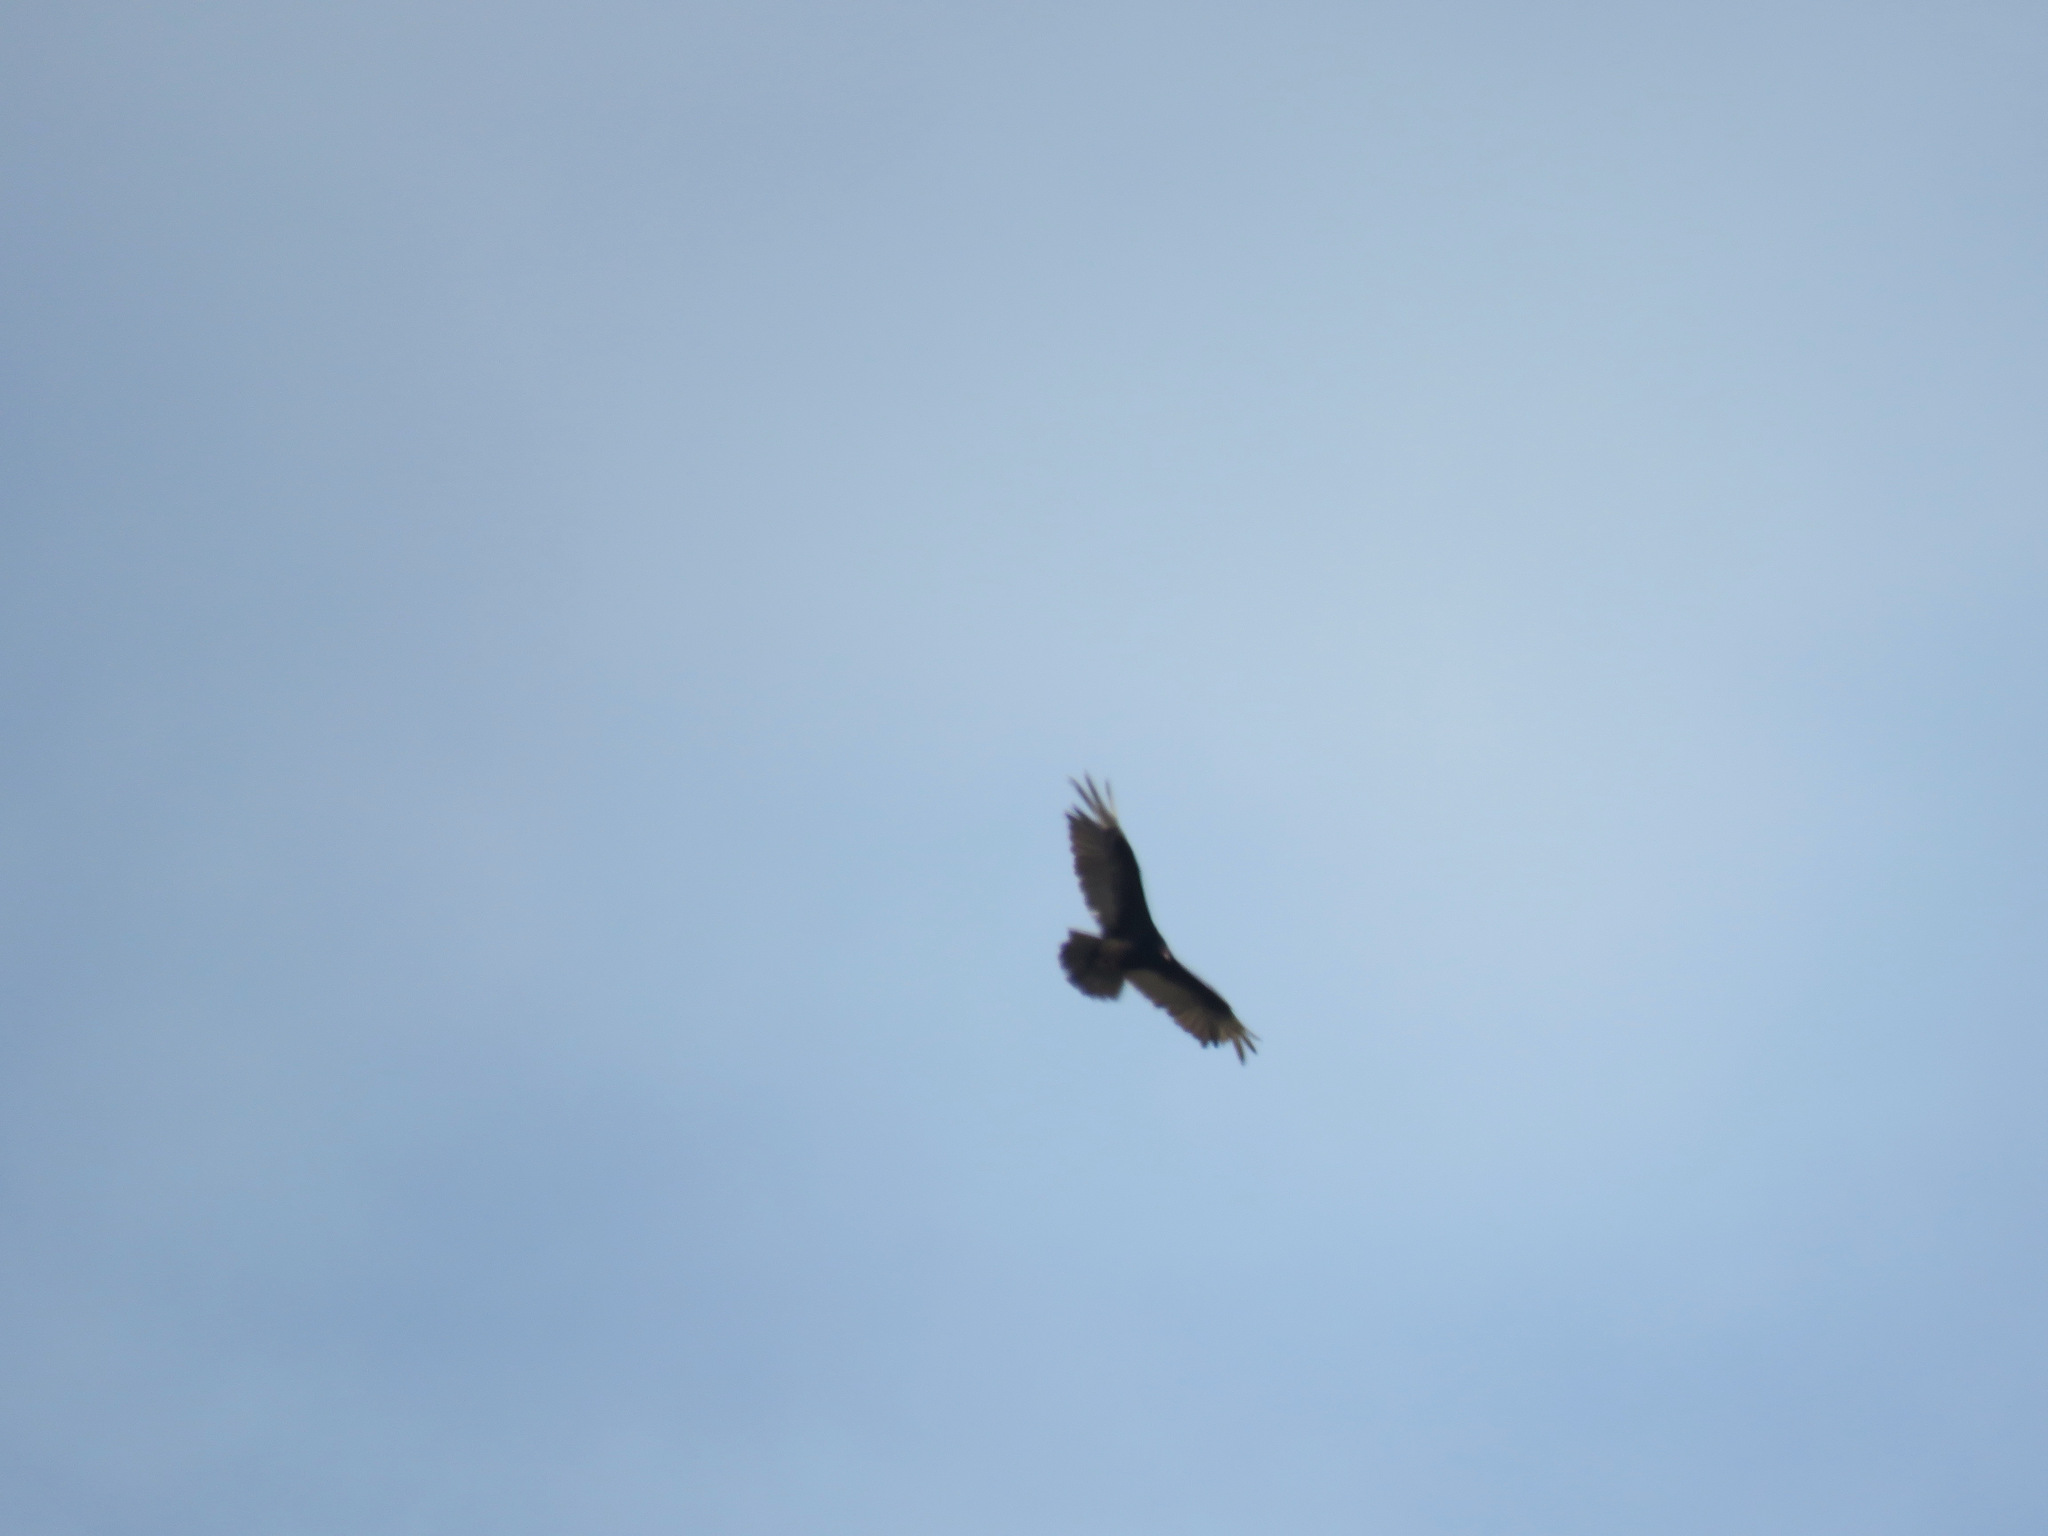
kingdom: Animalia
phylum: Chordata
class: Aves
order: Accipitriformes
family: Cathartidae
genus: Cathartes
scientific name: Cathartes aura
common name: Turkey vulture
